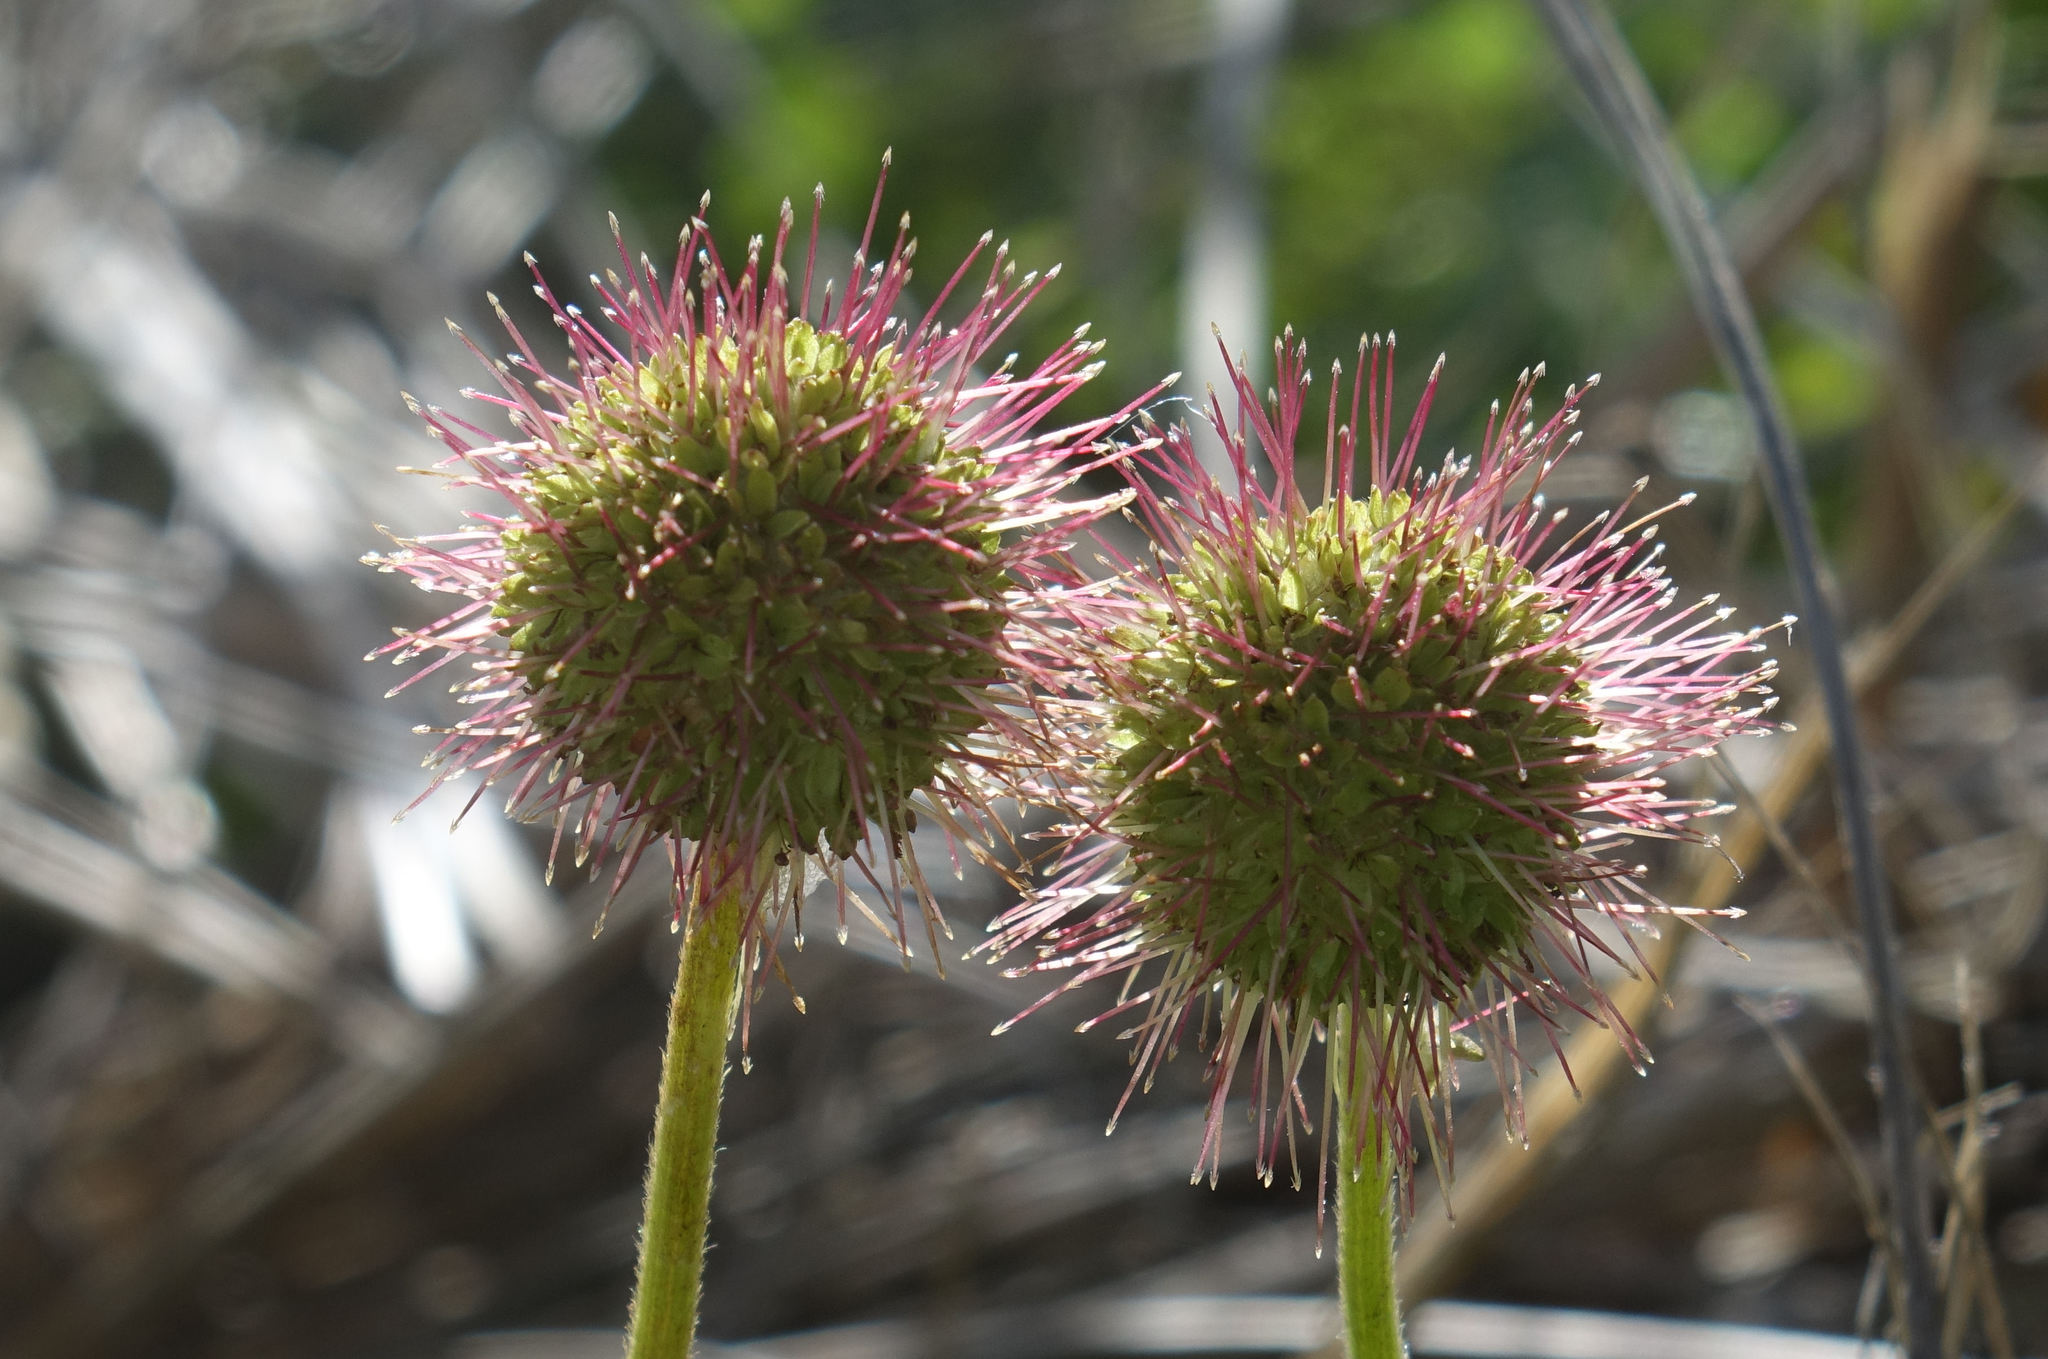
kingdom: Plantae
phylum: Tracheophyta
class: Magnoliopsida
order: Rosales
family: Rosaceae
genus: Acaena
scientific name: Acaena pallida
